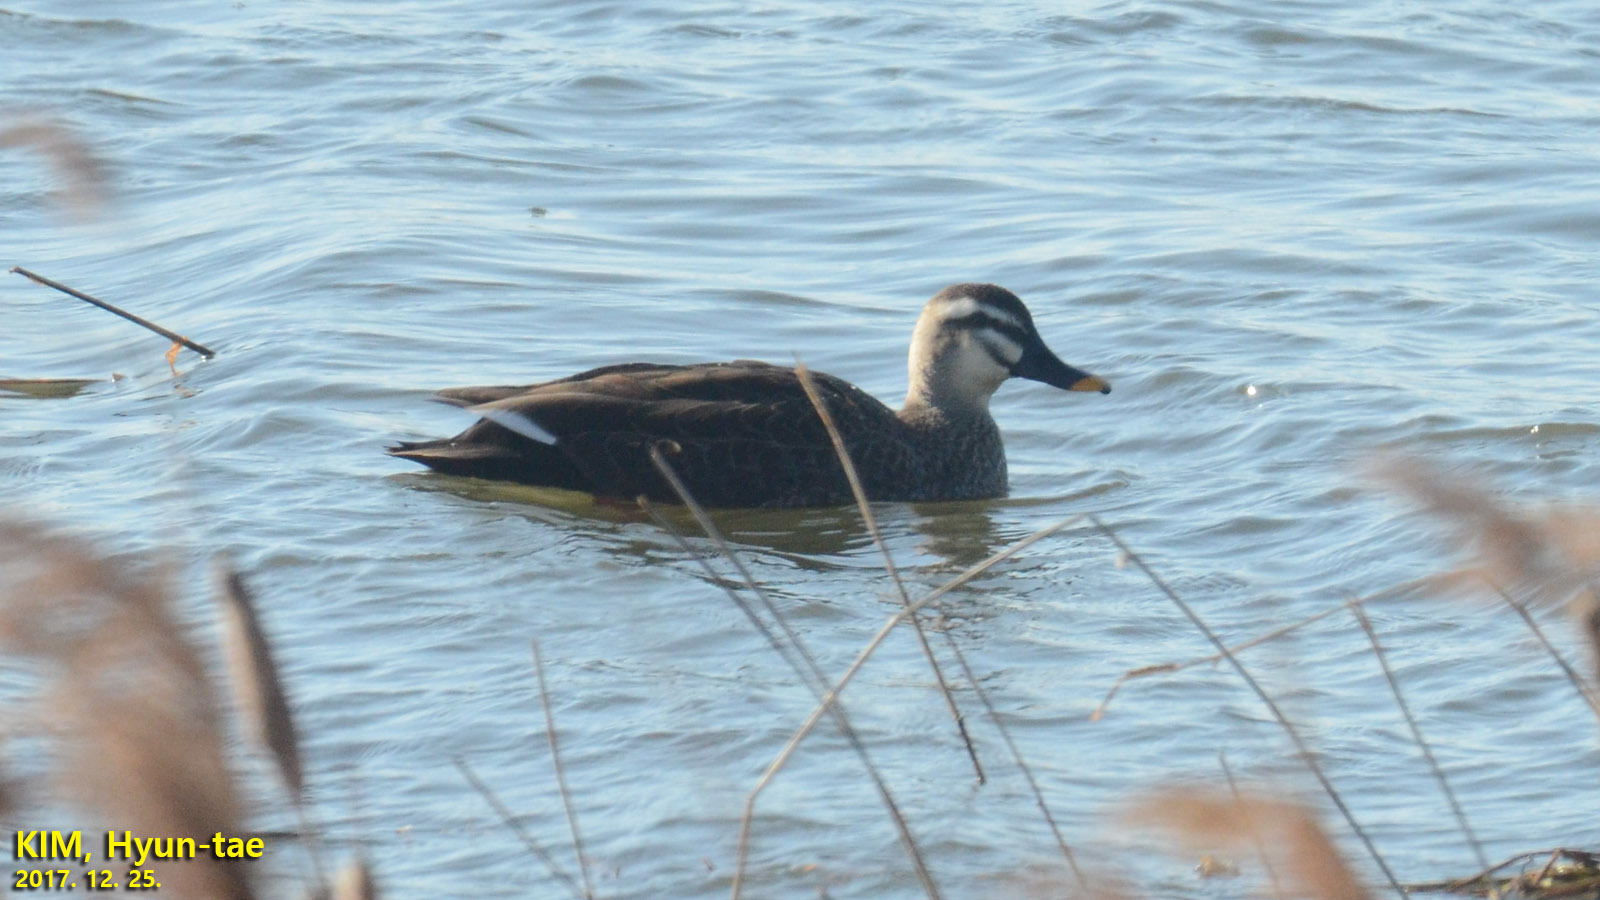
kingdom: Animalia
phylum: Chordata
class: Aves
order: Anseriformes
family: Anatidae
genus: Anas
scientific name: Anas zonorhyncha
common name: Eastern spot-billed duck
